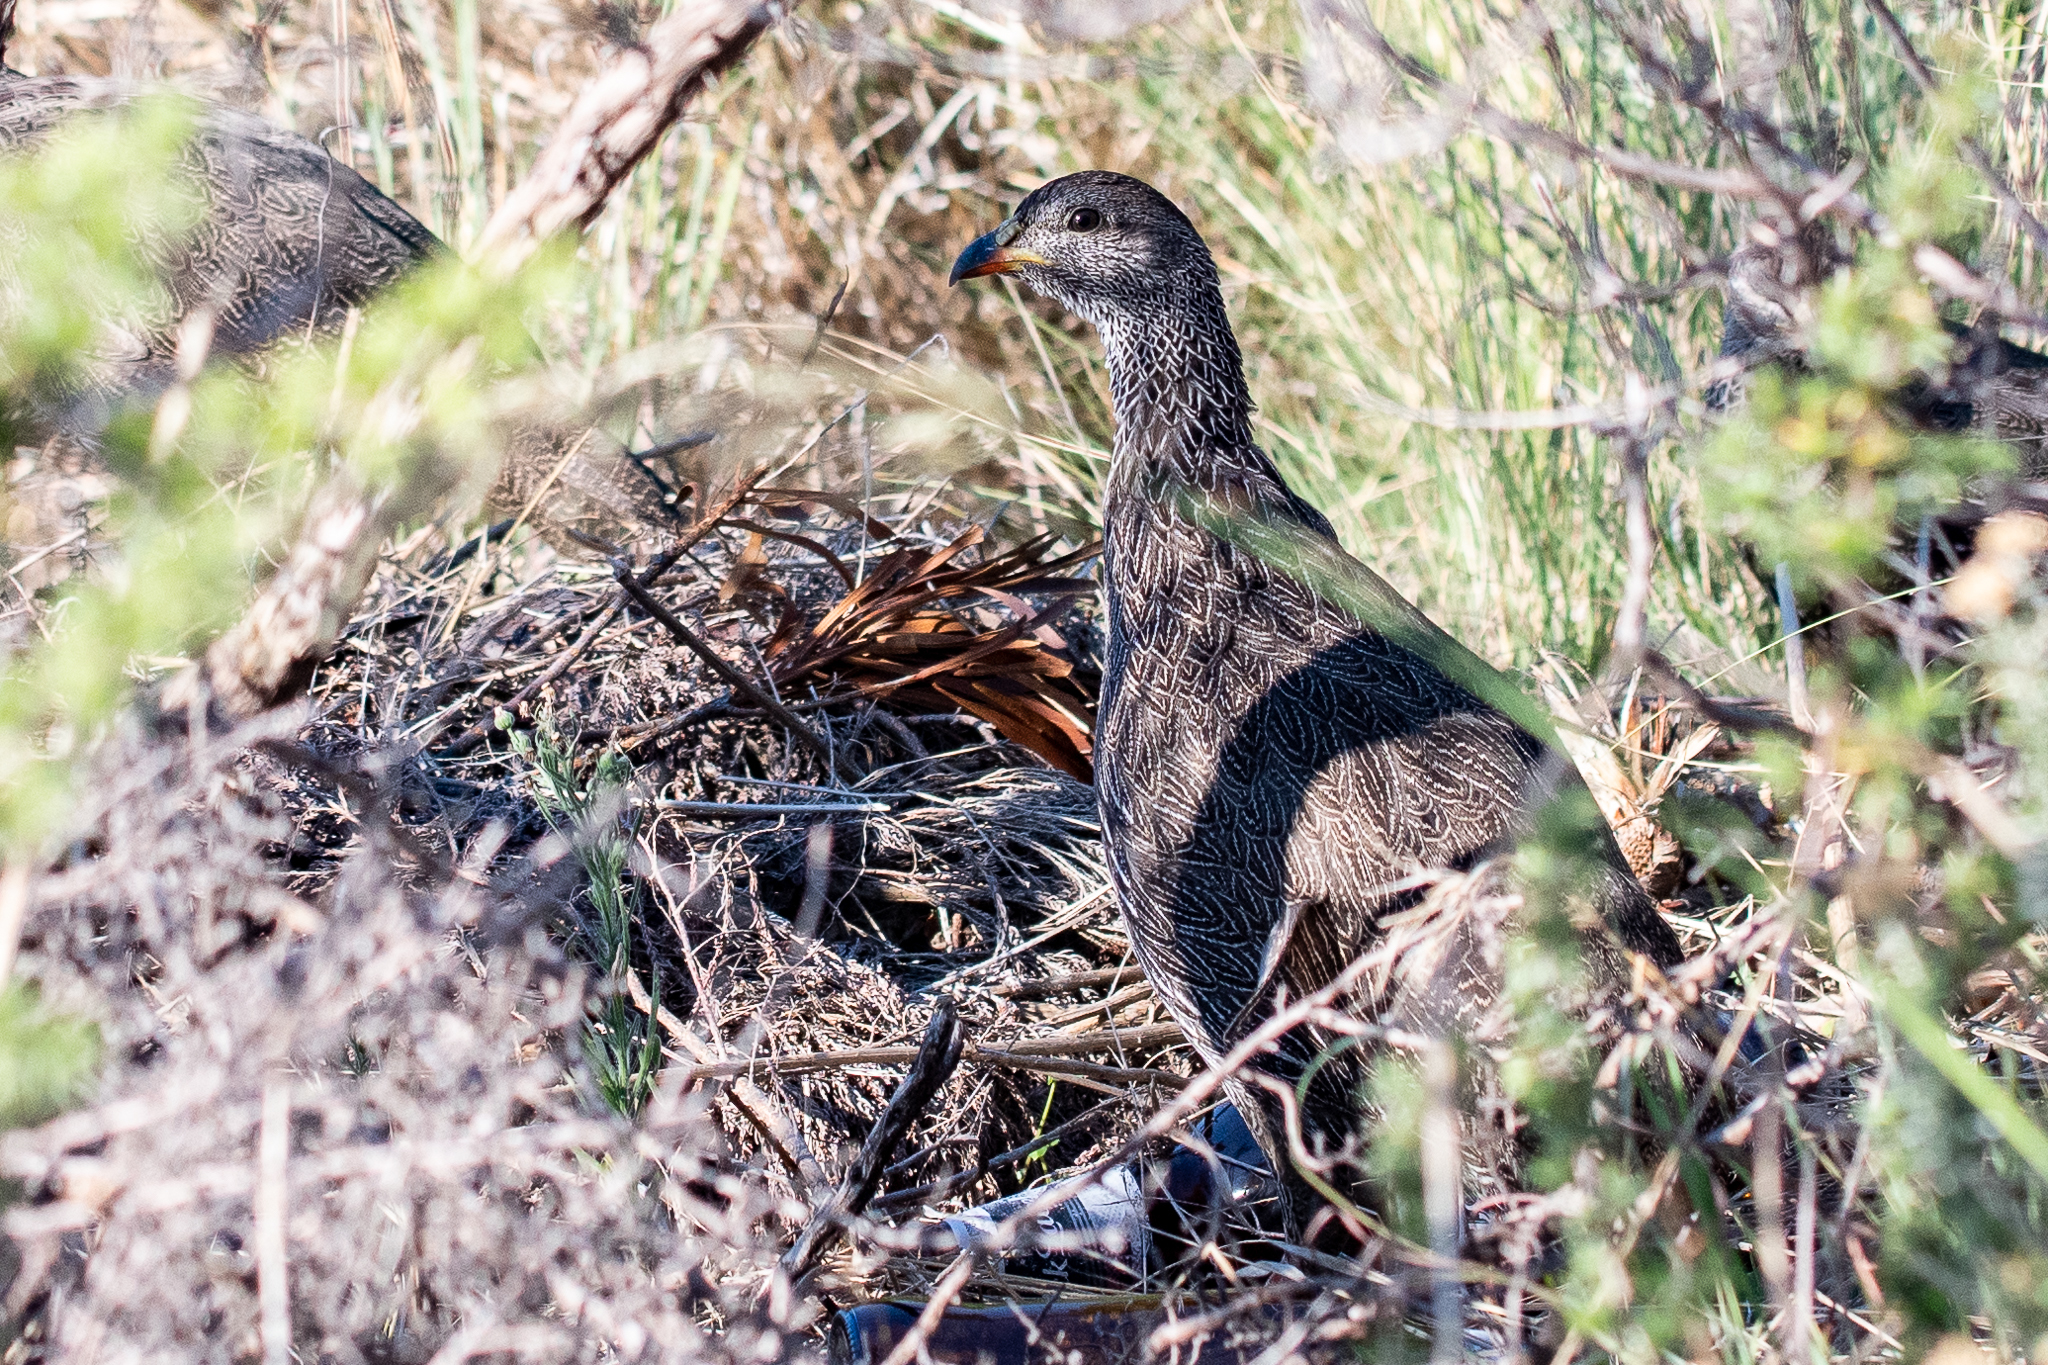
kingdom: Animalia
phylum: Chordata
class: Aves
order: Galliformes
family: Phasianidae
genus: Pternistis
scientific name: Pternistis capensis
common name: Cape spurfowl
